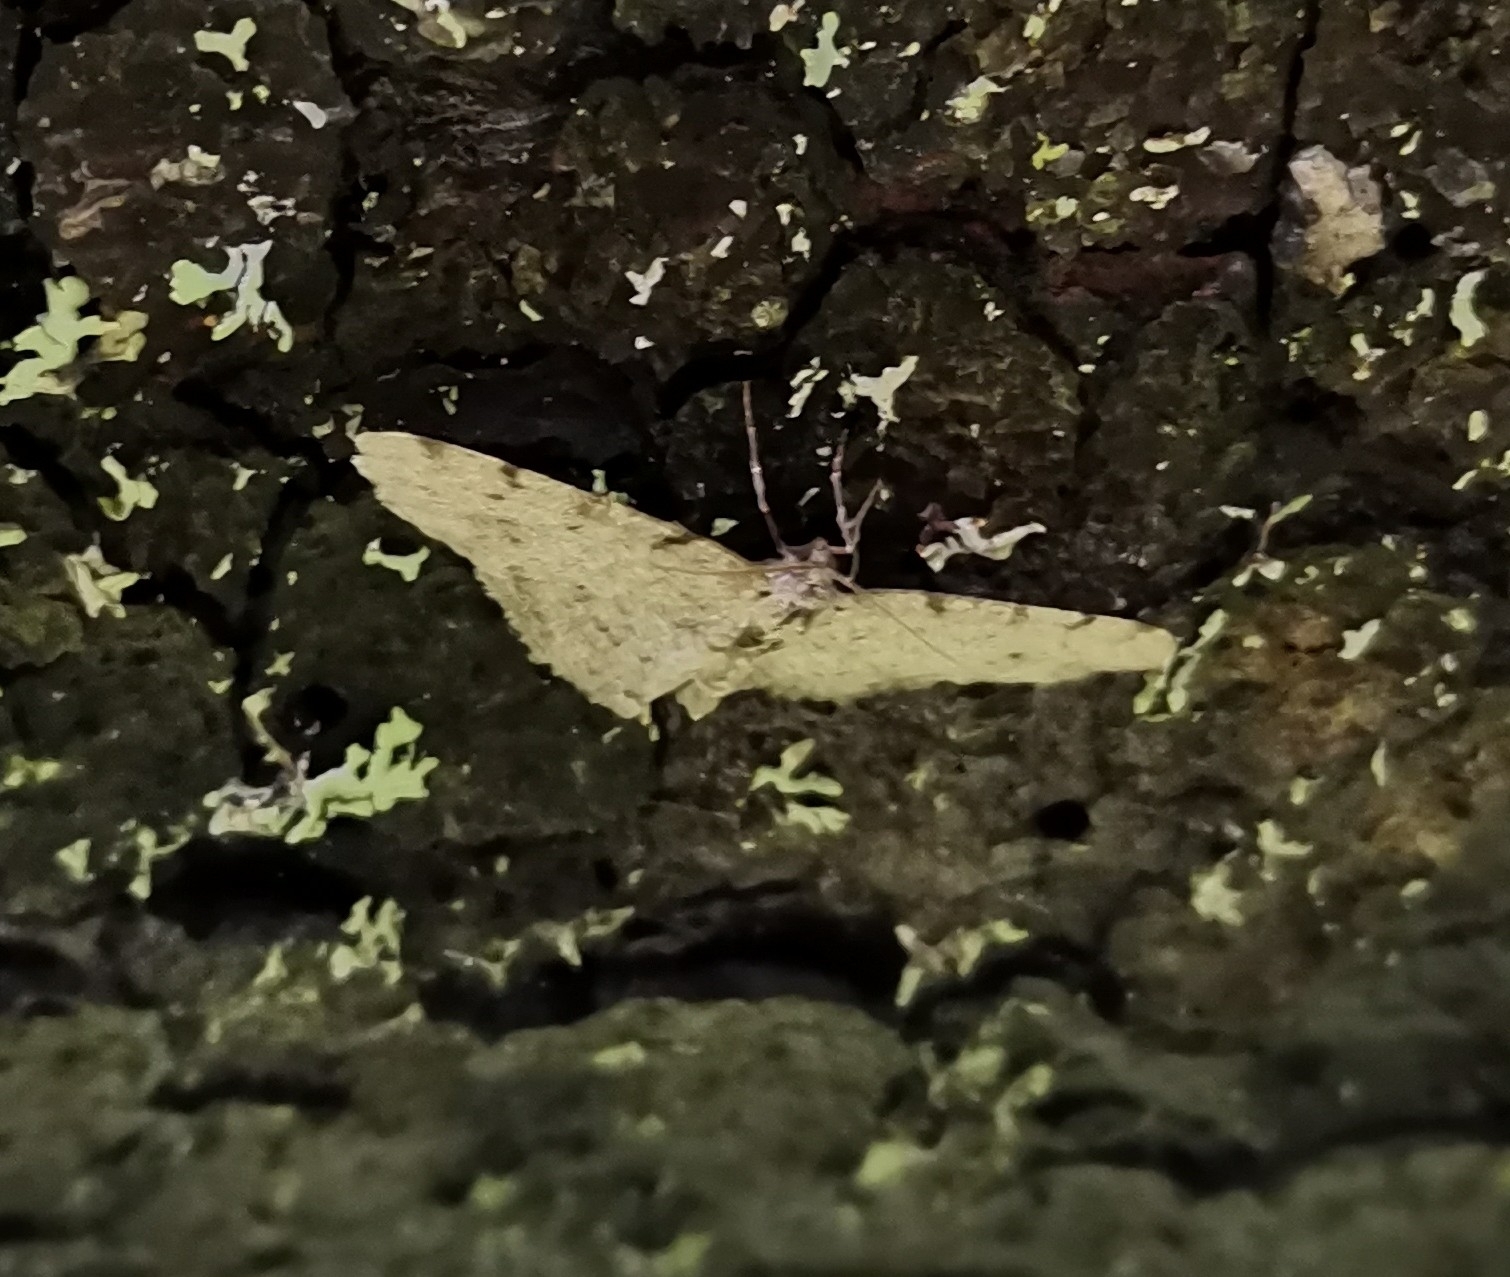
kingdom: Animalia
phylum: Arthropoda
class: Insecta
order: Lepidoptera
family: Geometridae
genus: Aethalura
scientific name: Aethalura punctulata
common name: Grey birch
